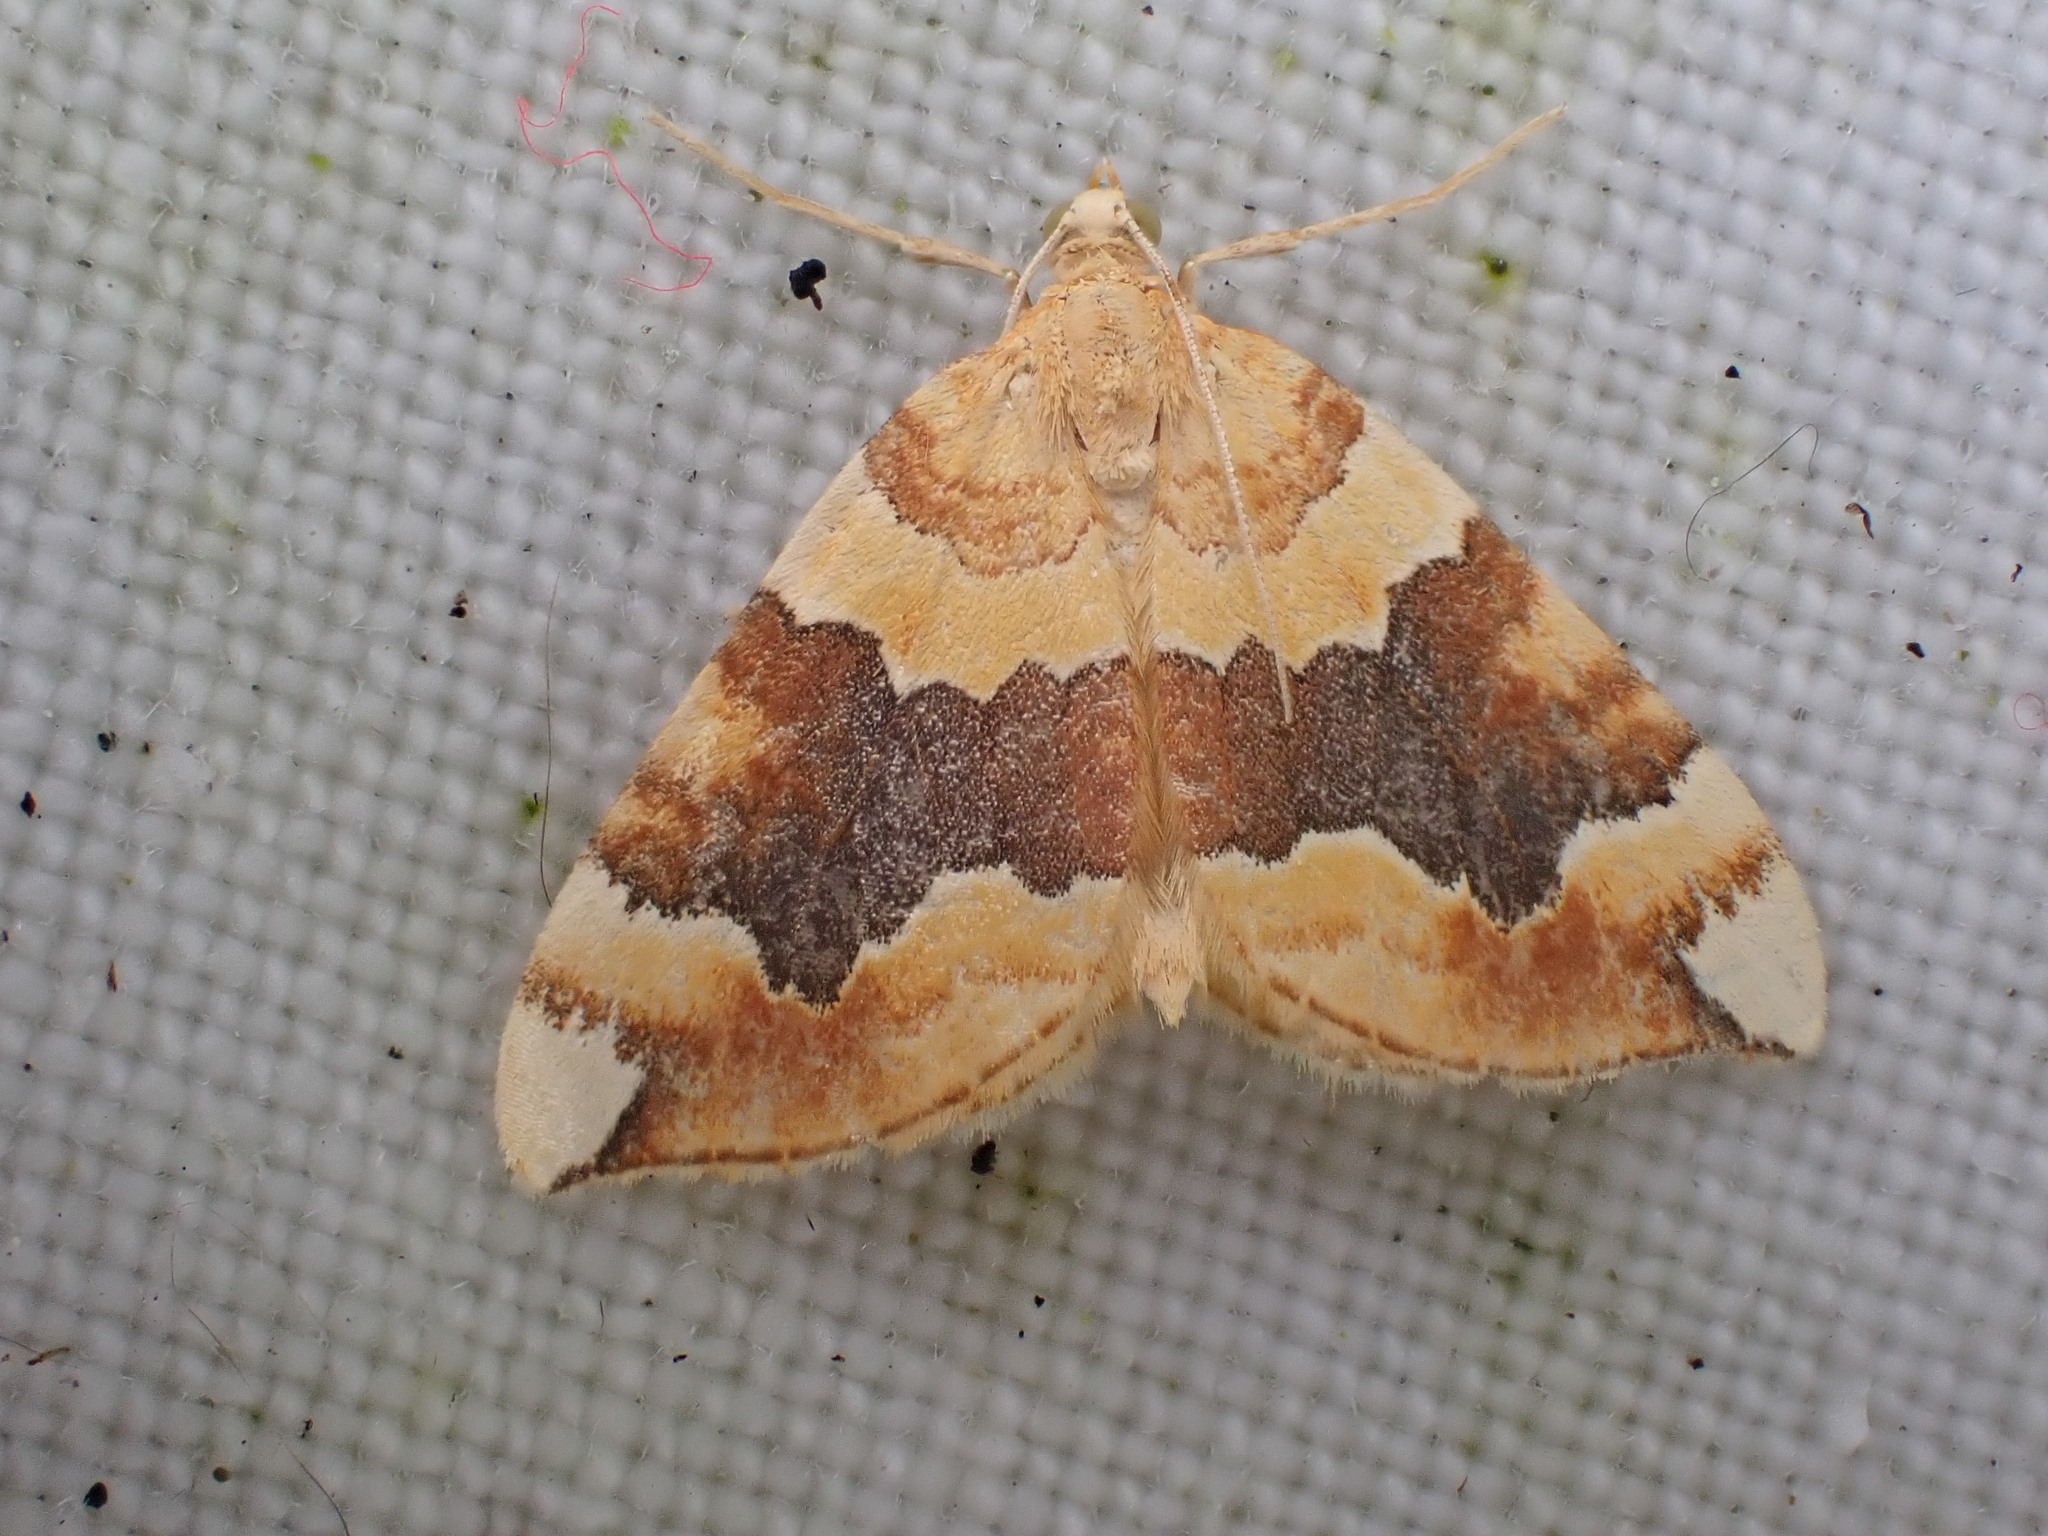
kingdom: Animalia
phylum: Arthropoda
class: Insecta
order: Lepidoptera
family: Geometridae
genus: Cidaria
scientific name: Cidaria fulvata
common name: Barred yellow
